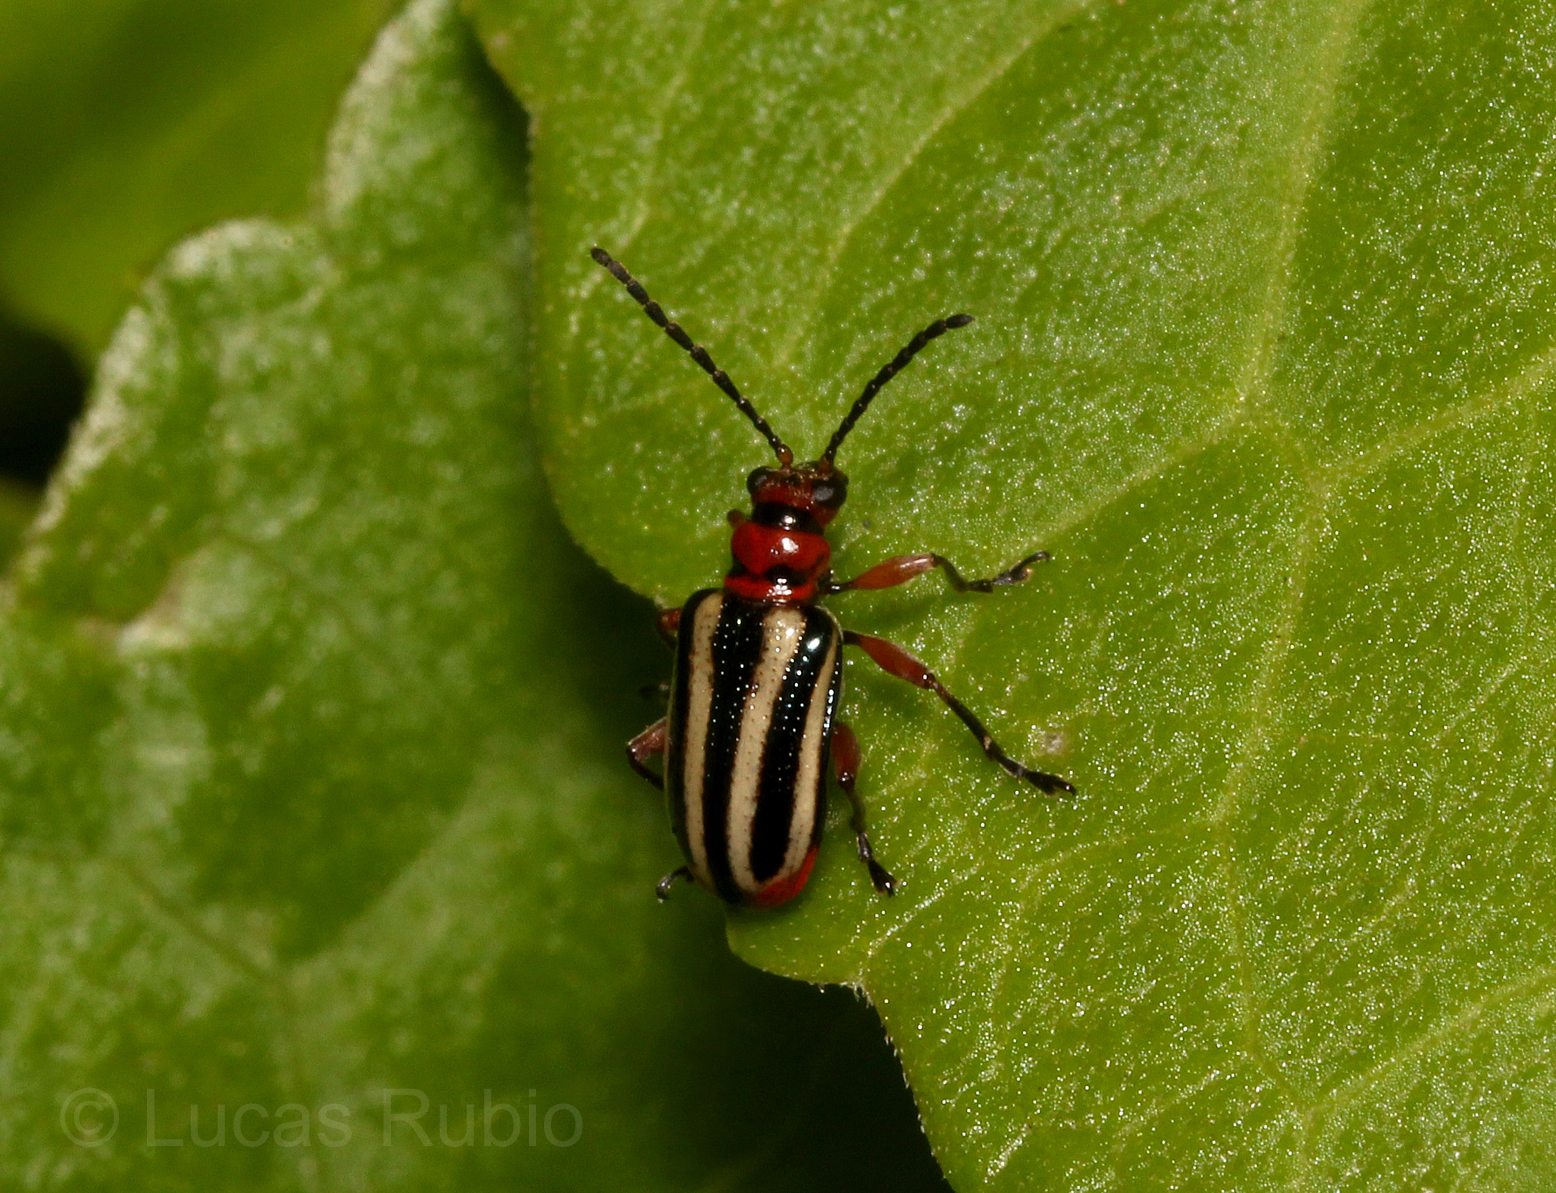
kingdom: Animalia
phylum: Arthropoda
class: Insecta
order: Coleoptera
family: Chrysomelidae
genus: Neolema
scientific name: Neolema
